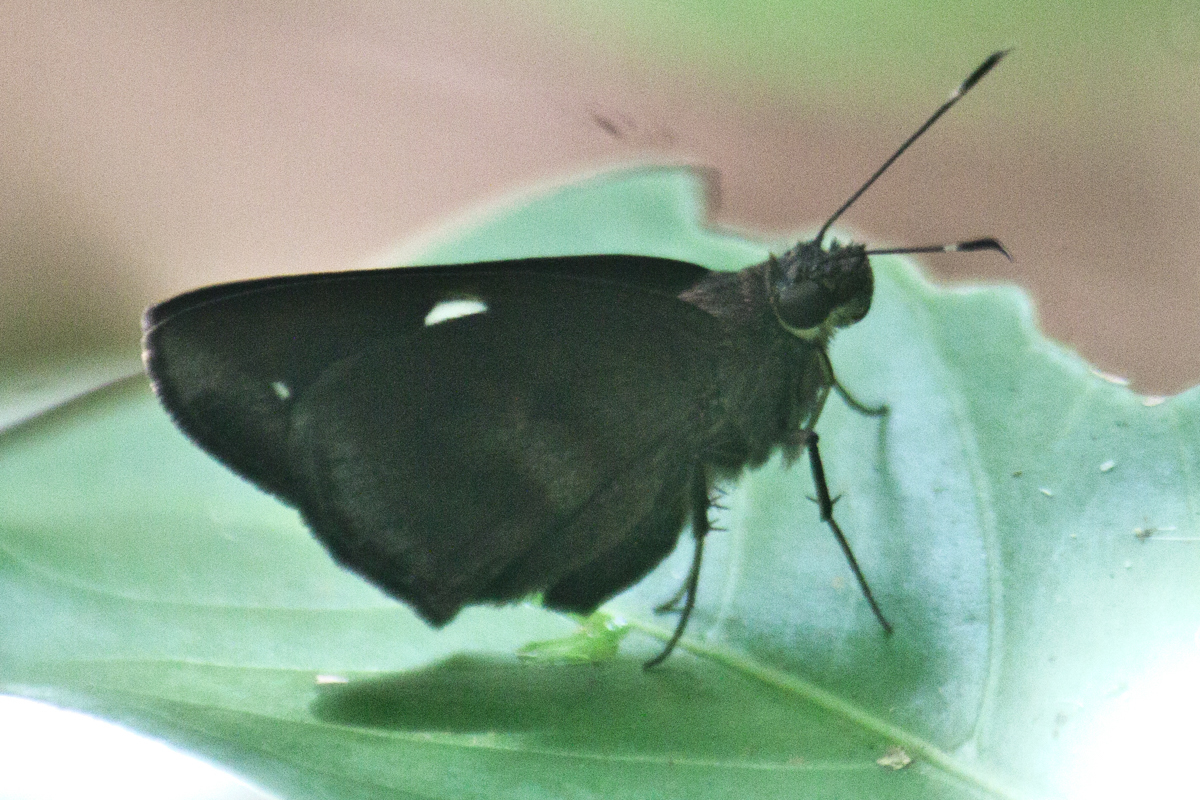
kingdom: Animalia
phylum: Arthropoda
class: Insecta
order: Lepidoptera
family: Hesperiidae
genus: Notocrypta
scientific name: Notocrypta paralysos
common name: Common banded demon
